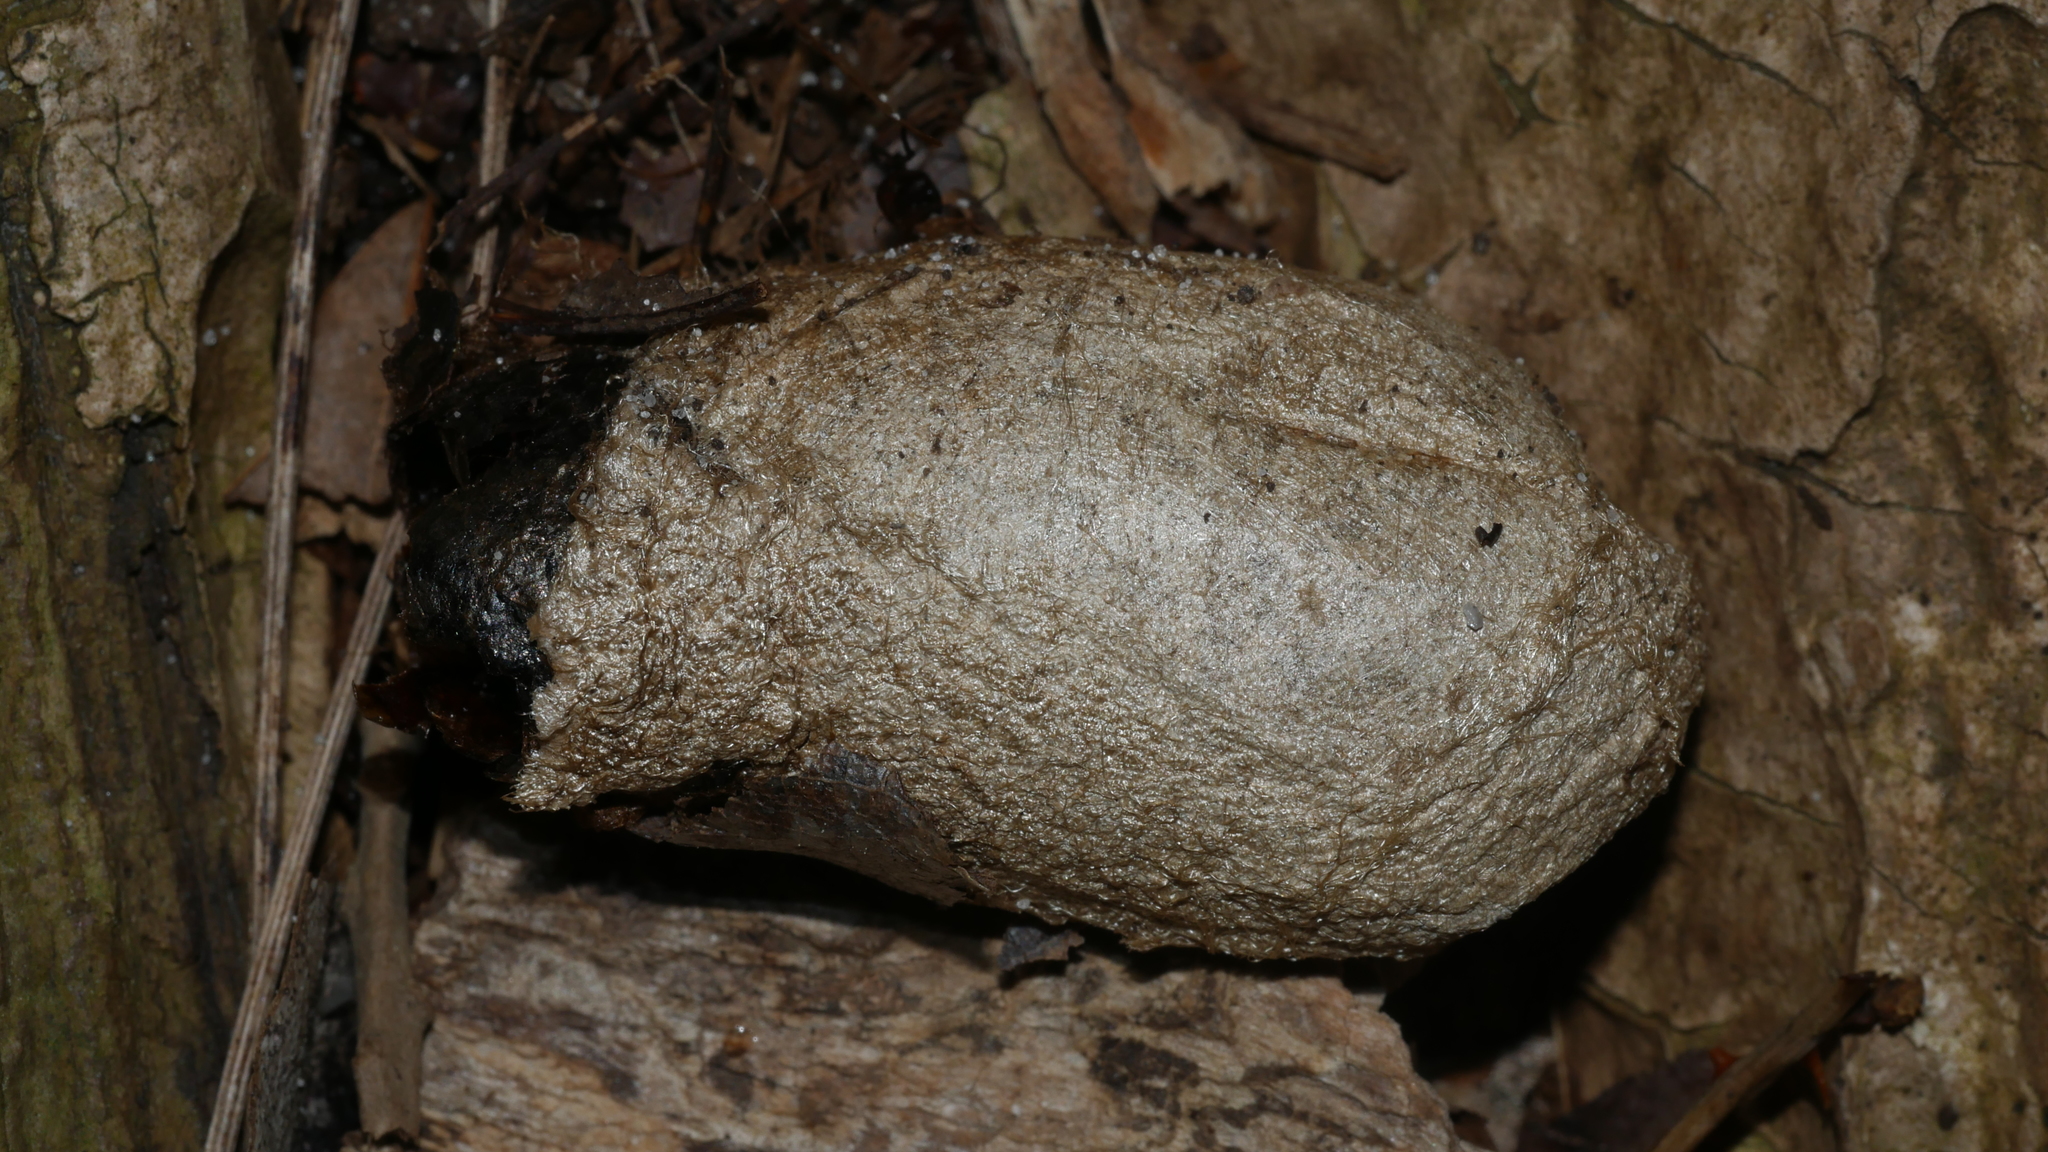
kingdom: Animalia
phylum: Arthropoda
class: Insecta
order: Lepidoptera
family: Saturniidae
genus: Antheraea
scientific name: Antheraea polyphemus
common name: Polyphemus moth
